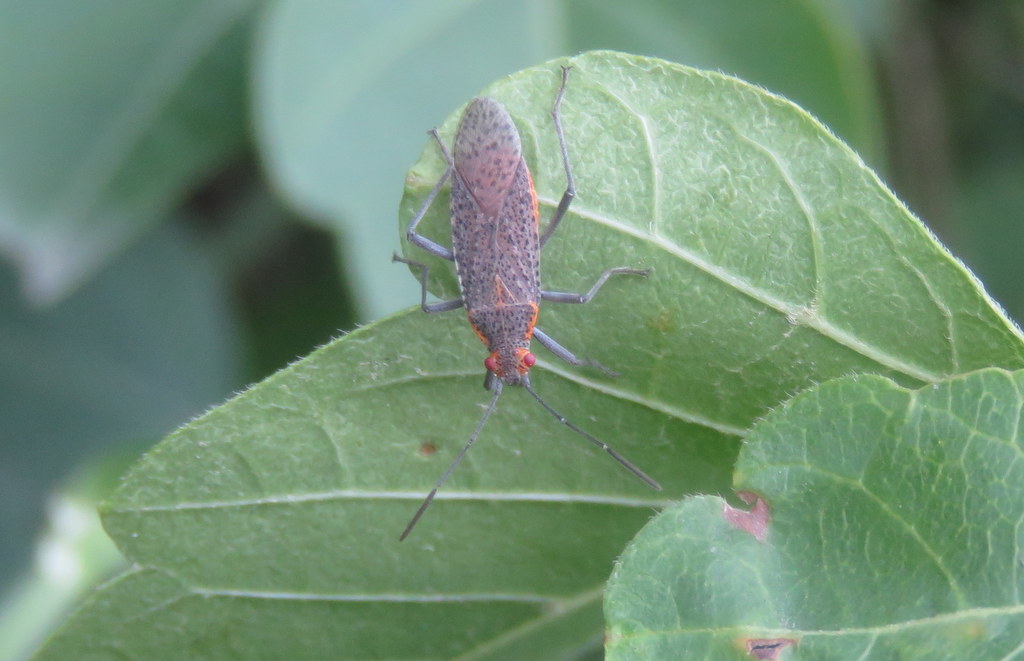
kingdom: Animalia
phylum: Arthropoda
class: Insecta
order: Hemiptera
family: Rhopalidae
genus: Jadera
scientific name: Jadera coturnix
